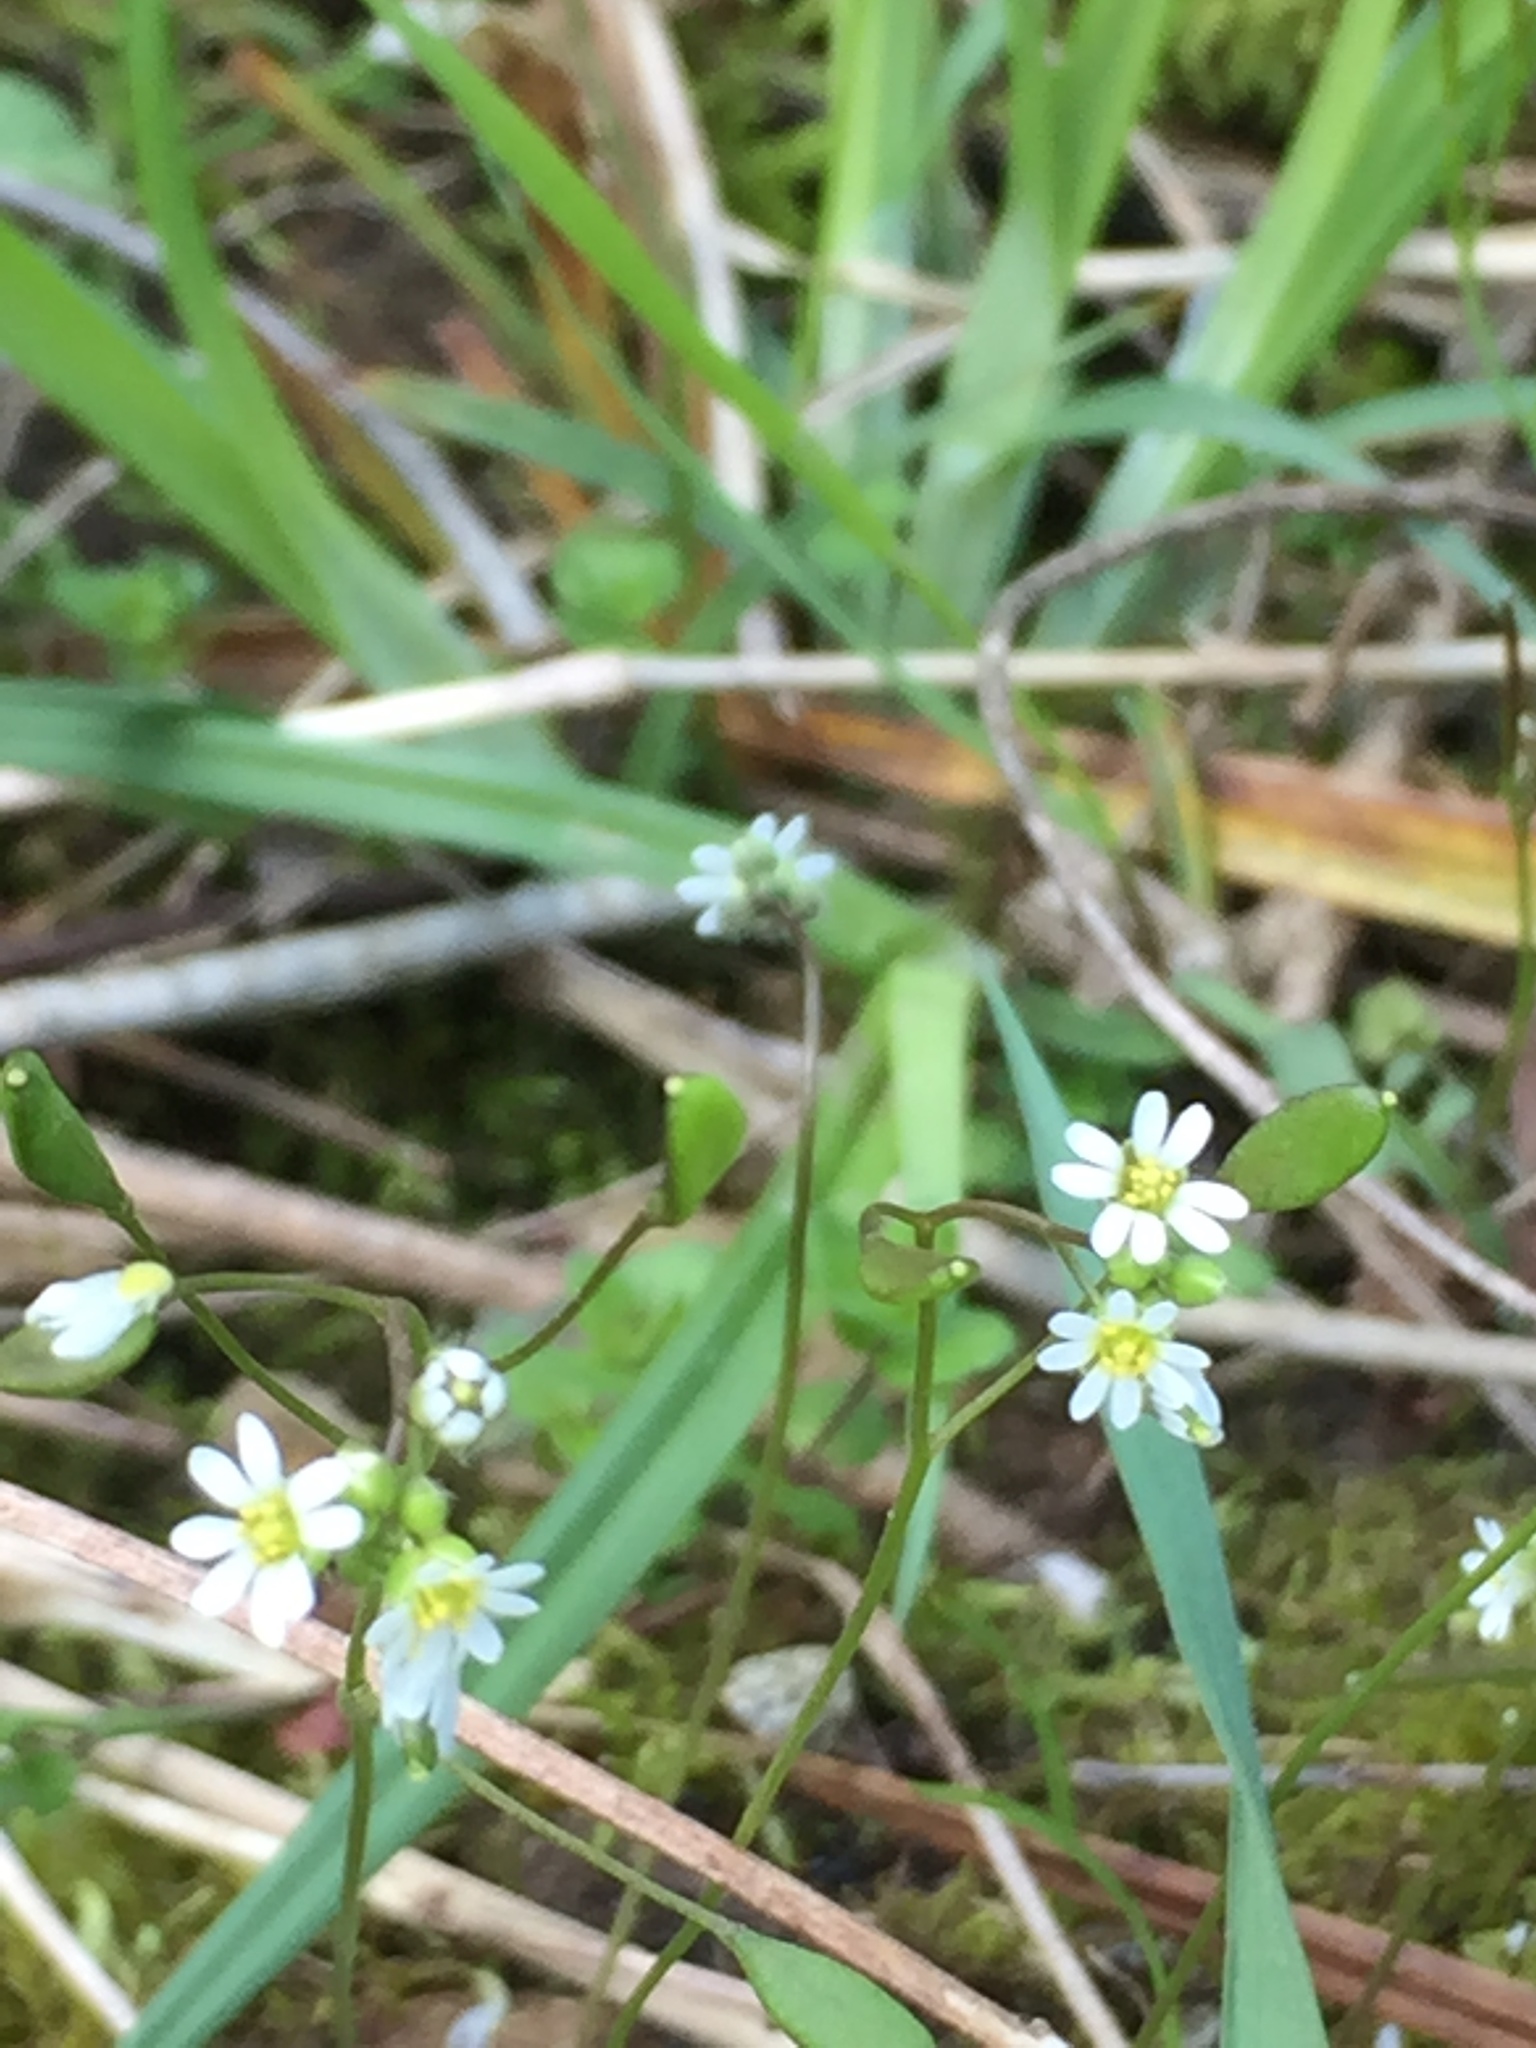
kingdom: Plantae
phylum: Tracheophyta
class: Magnoliopsida
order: Brassicales
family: Brassicaceae
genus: Draba
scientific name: Draba verna
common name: Spring draba
